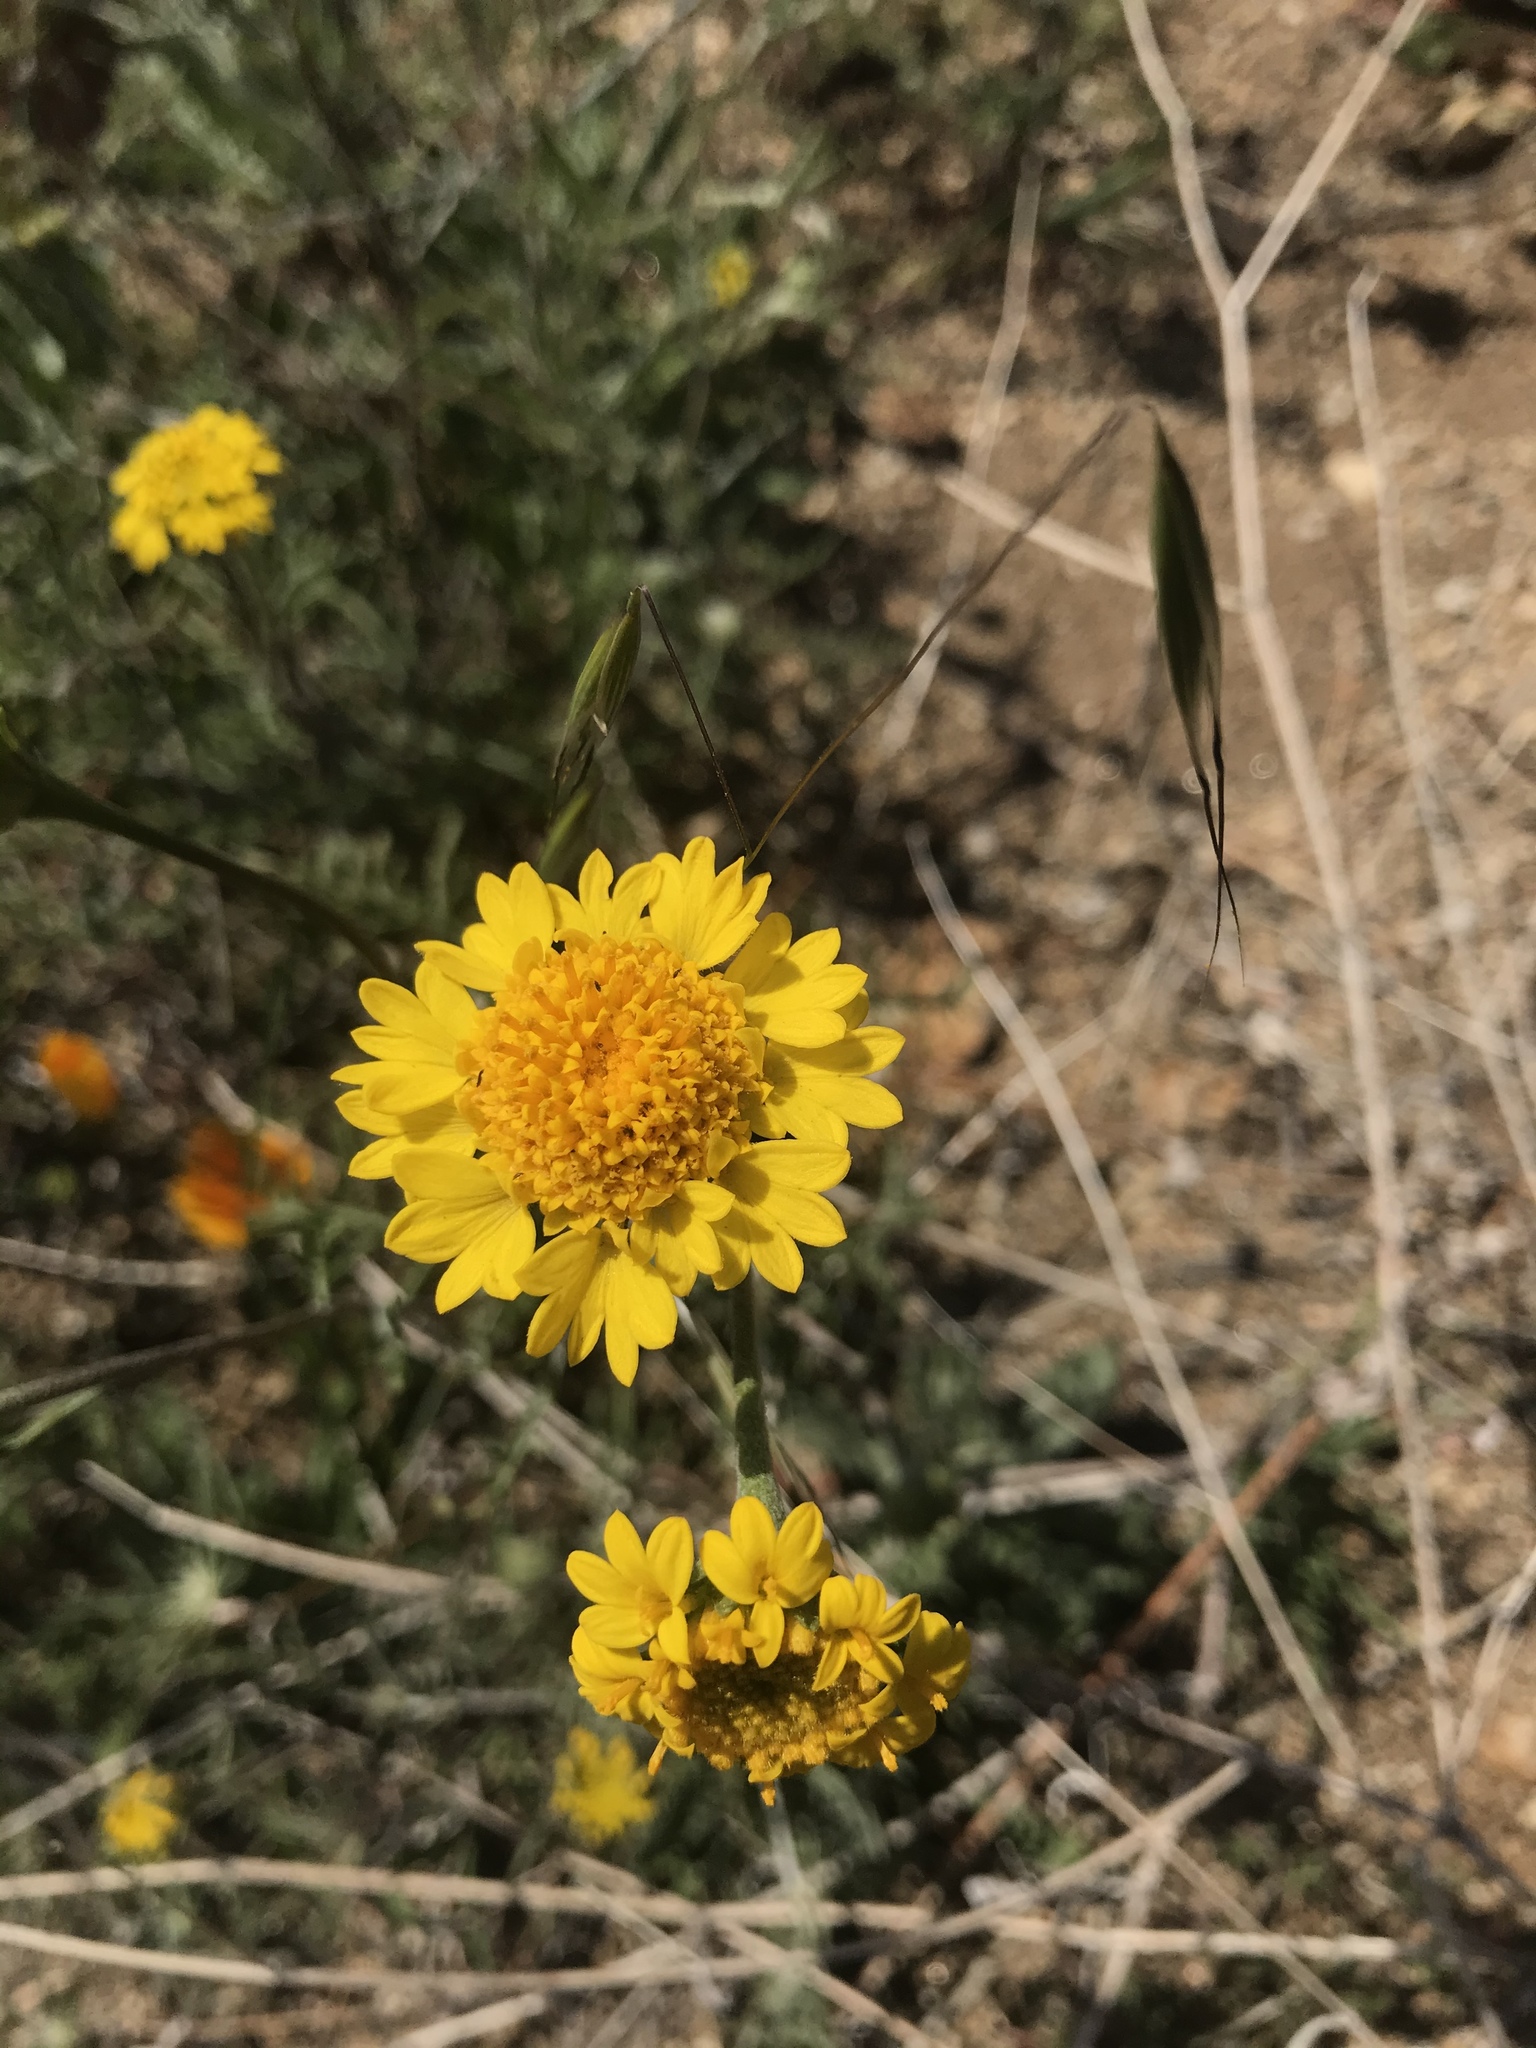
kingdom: Plantae
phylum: Tracheophyta
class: Magnoliopsida
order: Asterales
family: Asteraceae
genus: Chaenactis
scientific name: Chaenactis glabriuscula
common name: Yellow pincushion
